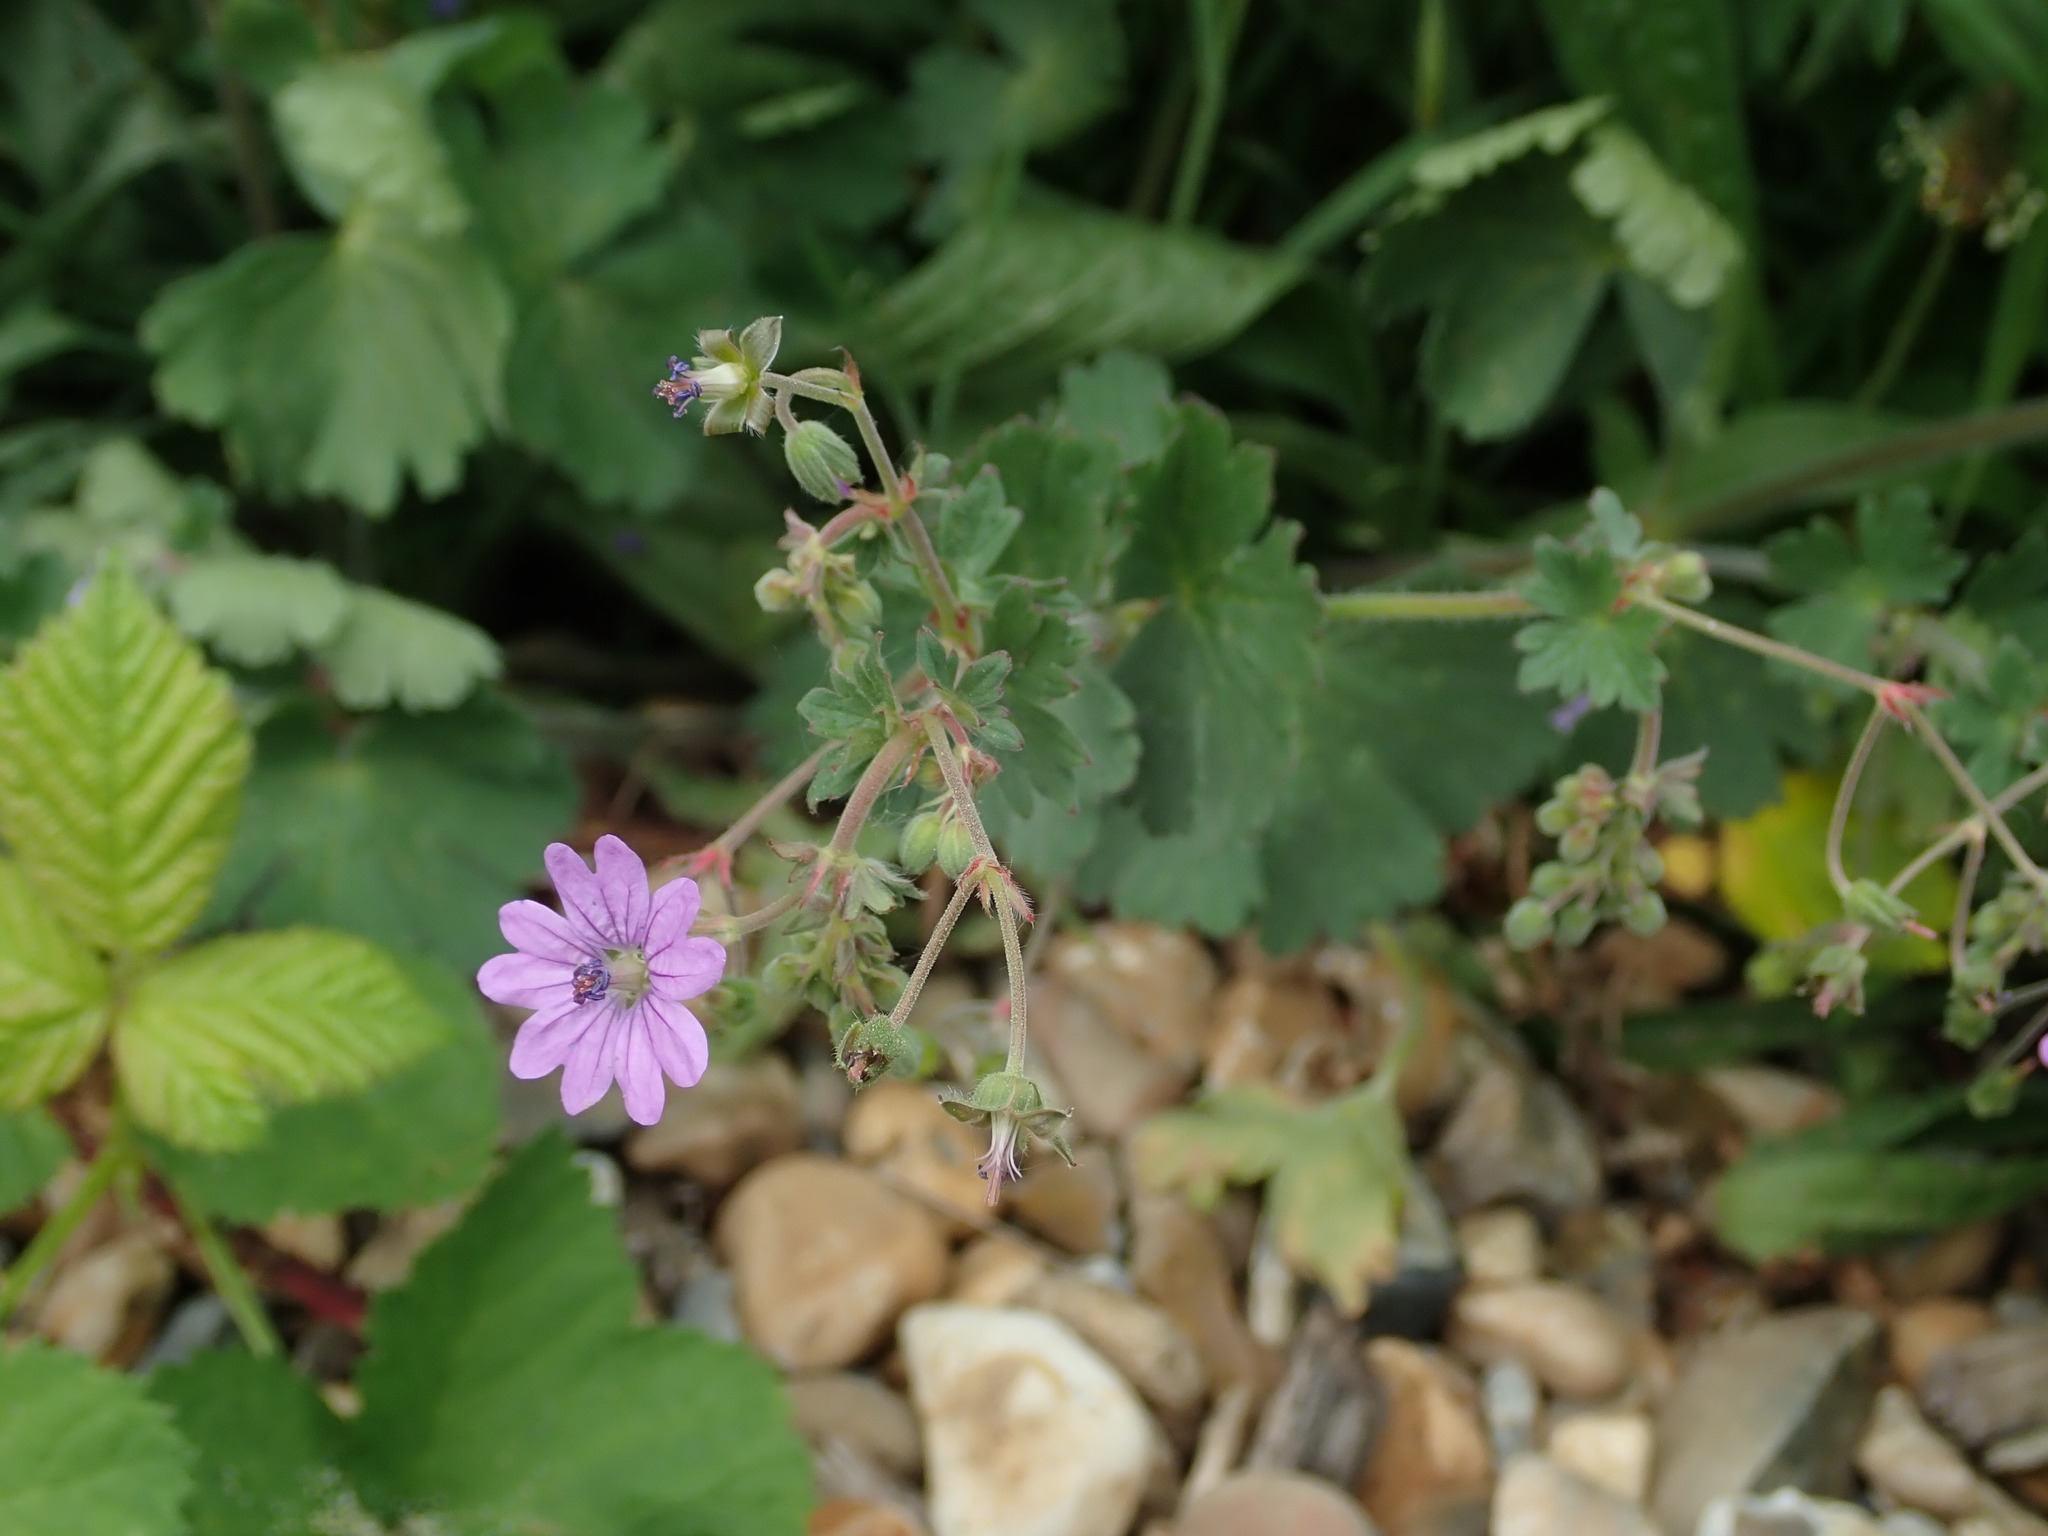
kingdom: Plantae
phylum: Tracheophyta
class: Magnoliopsida
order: Geraniales
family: Geraniaceae
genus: Geranium
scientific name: Geranium pyrenaicum
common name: Hedgerow crane's-bill
